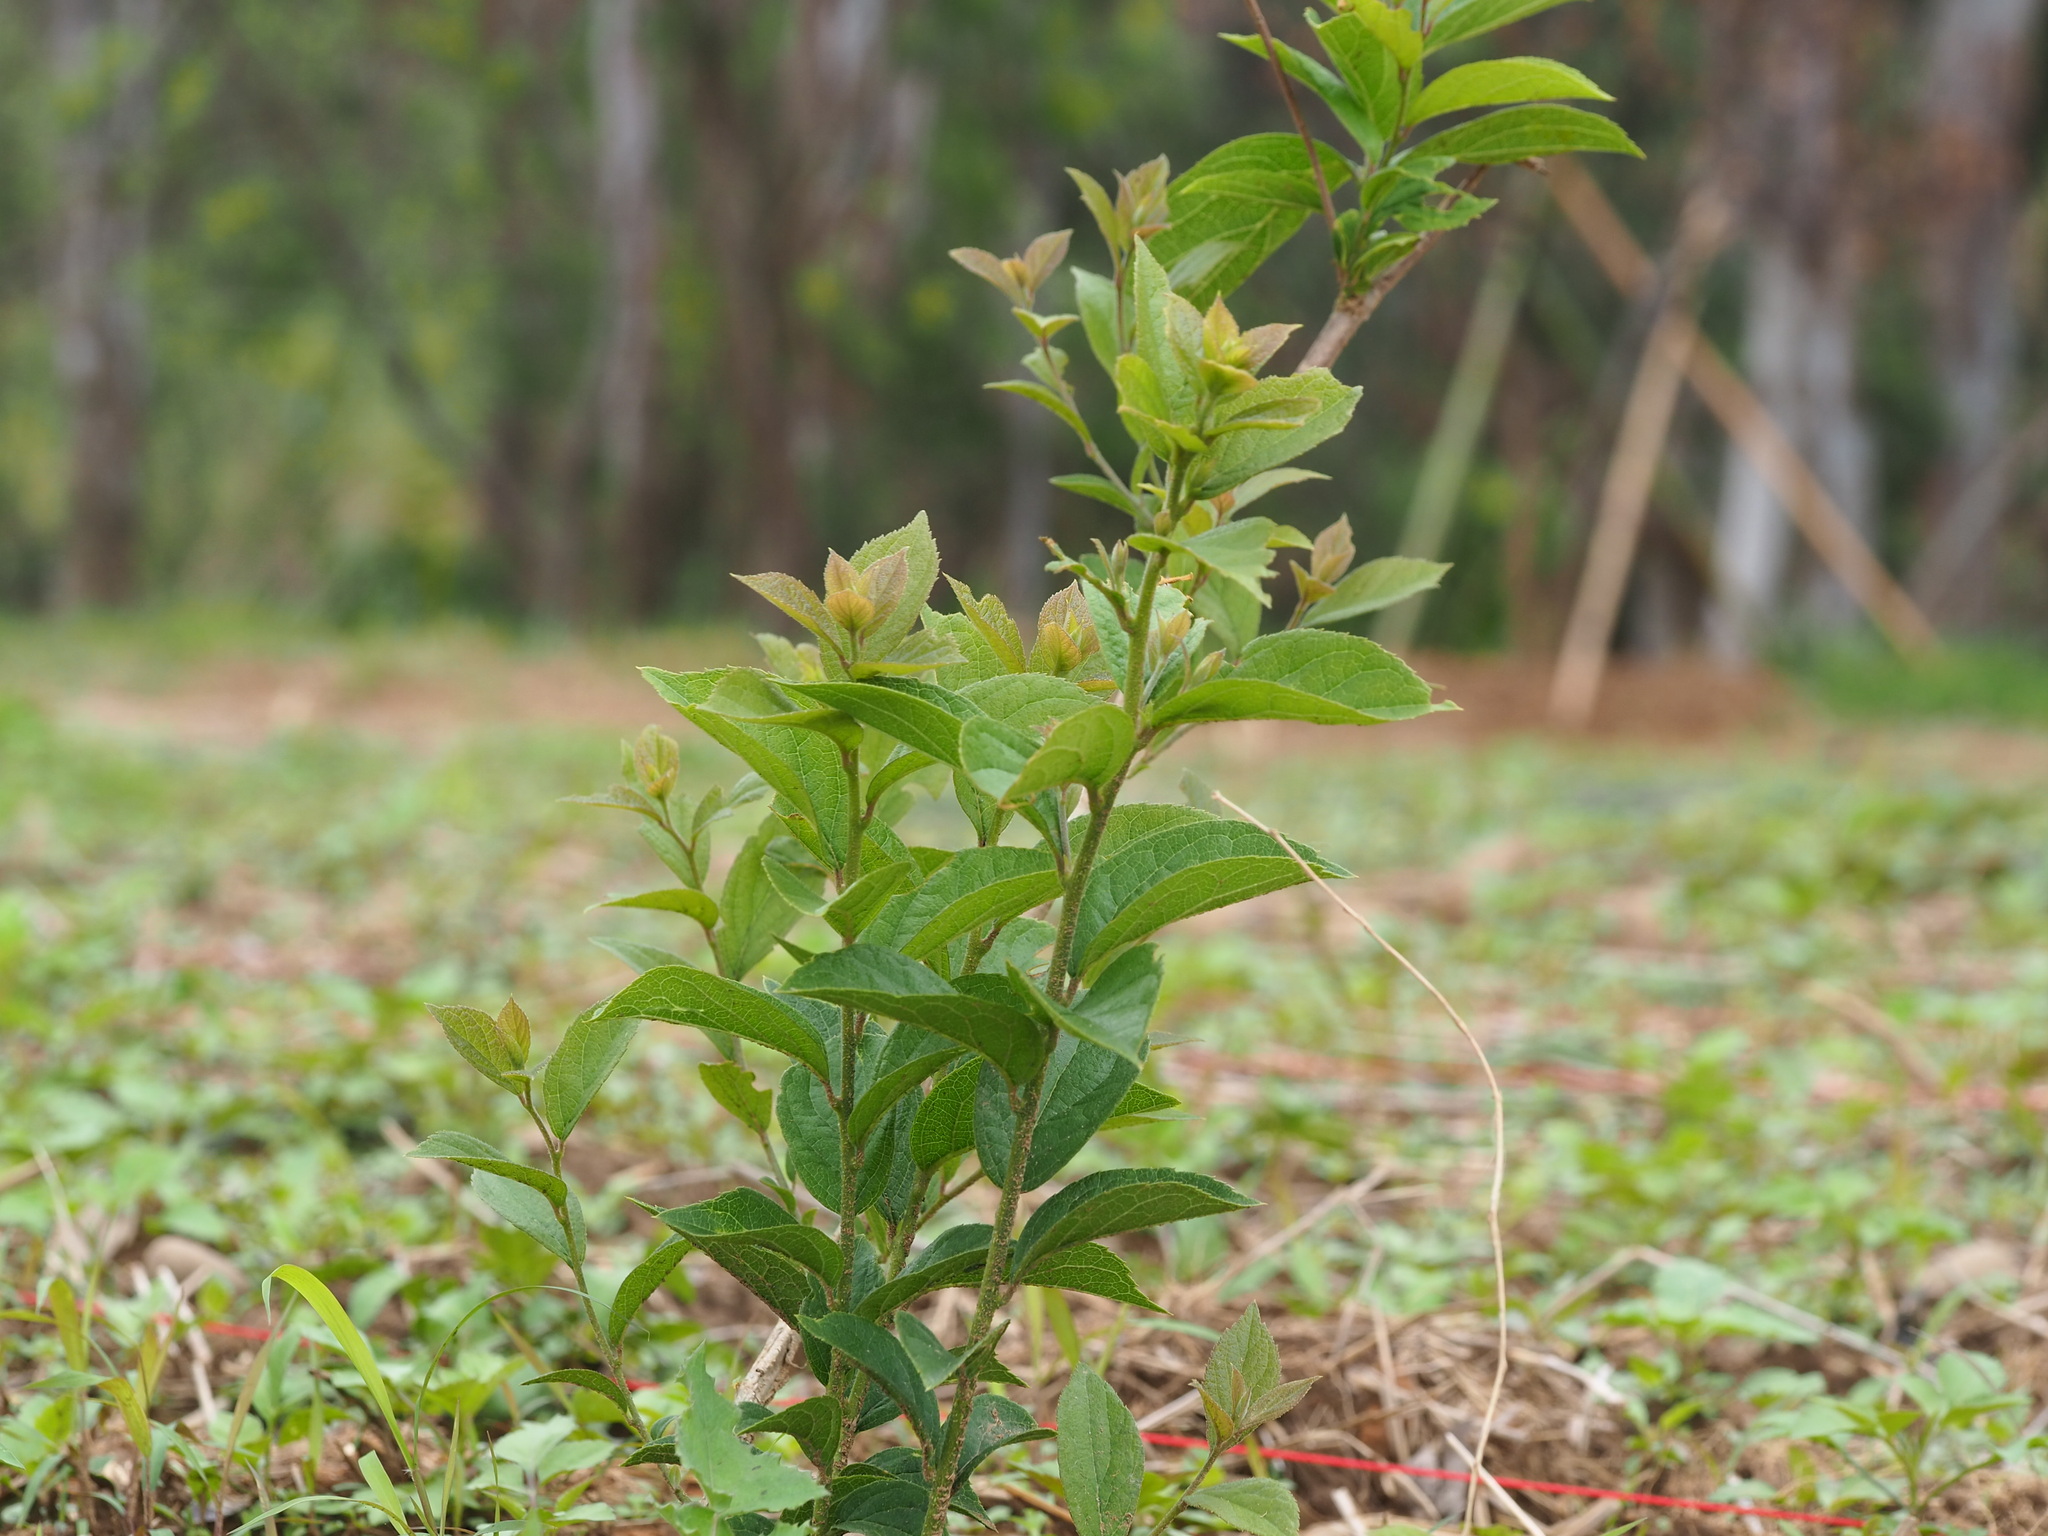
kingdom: Plantae
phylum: Tracheophyta
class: Magnoliopsida
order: Ericales
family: Symplocaceae
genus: Symplocos
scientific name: Symplocos paniculata
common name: Sapphire-berry
